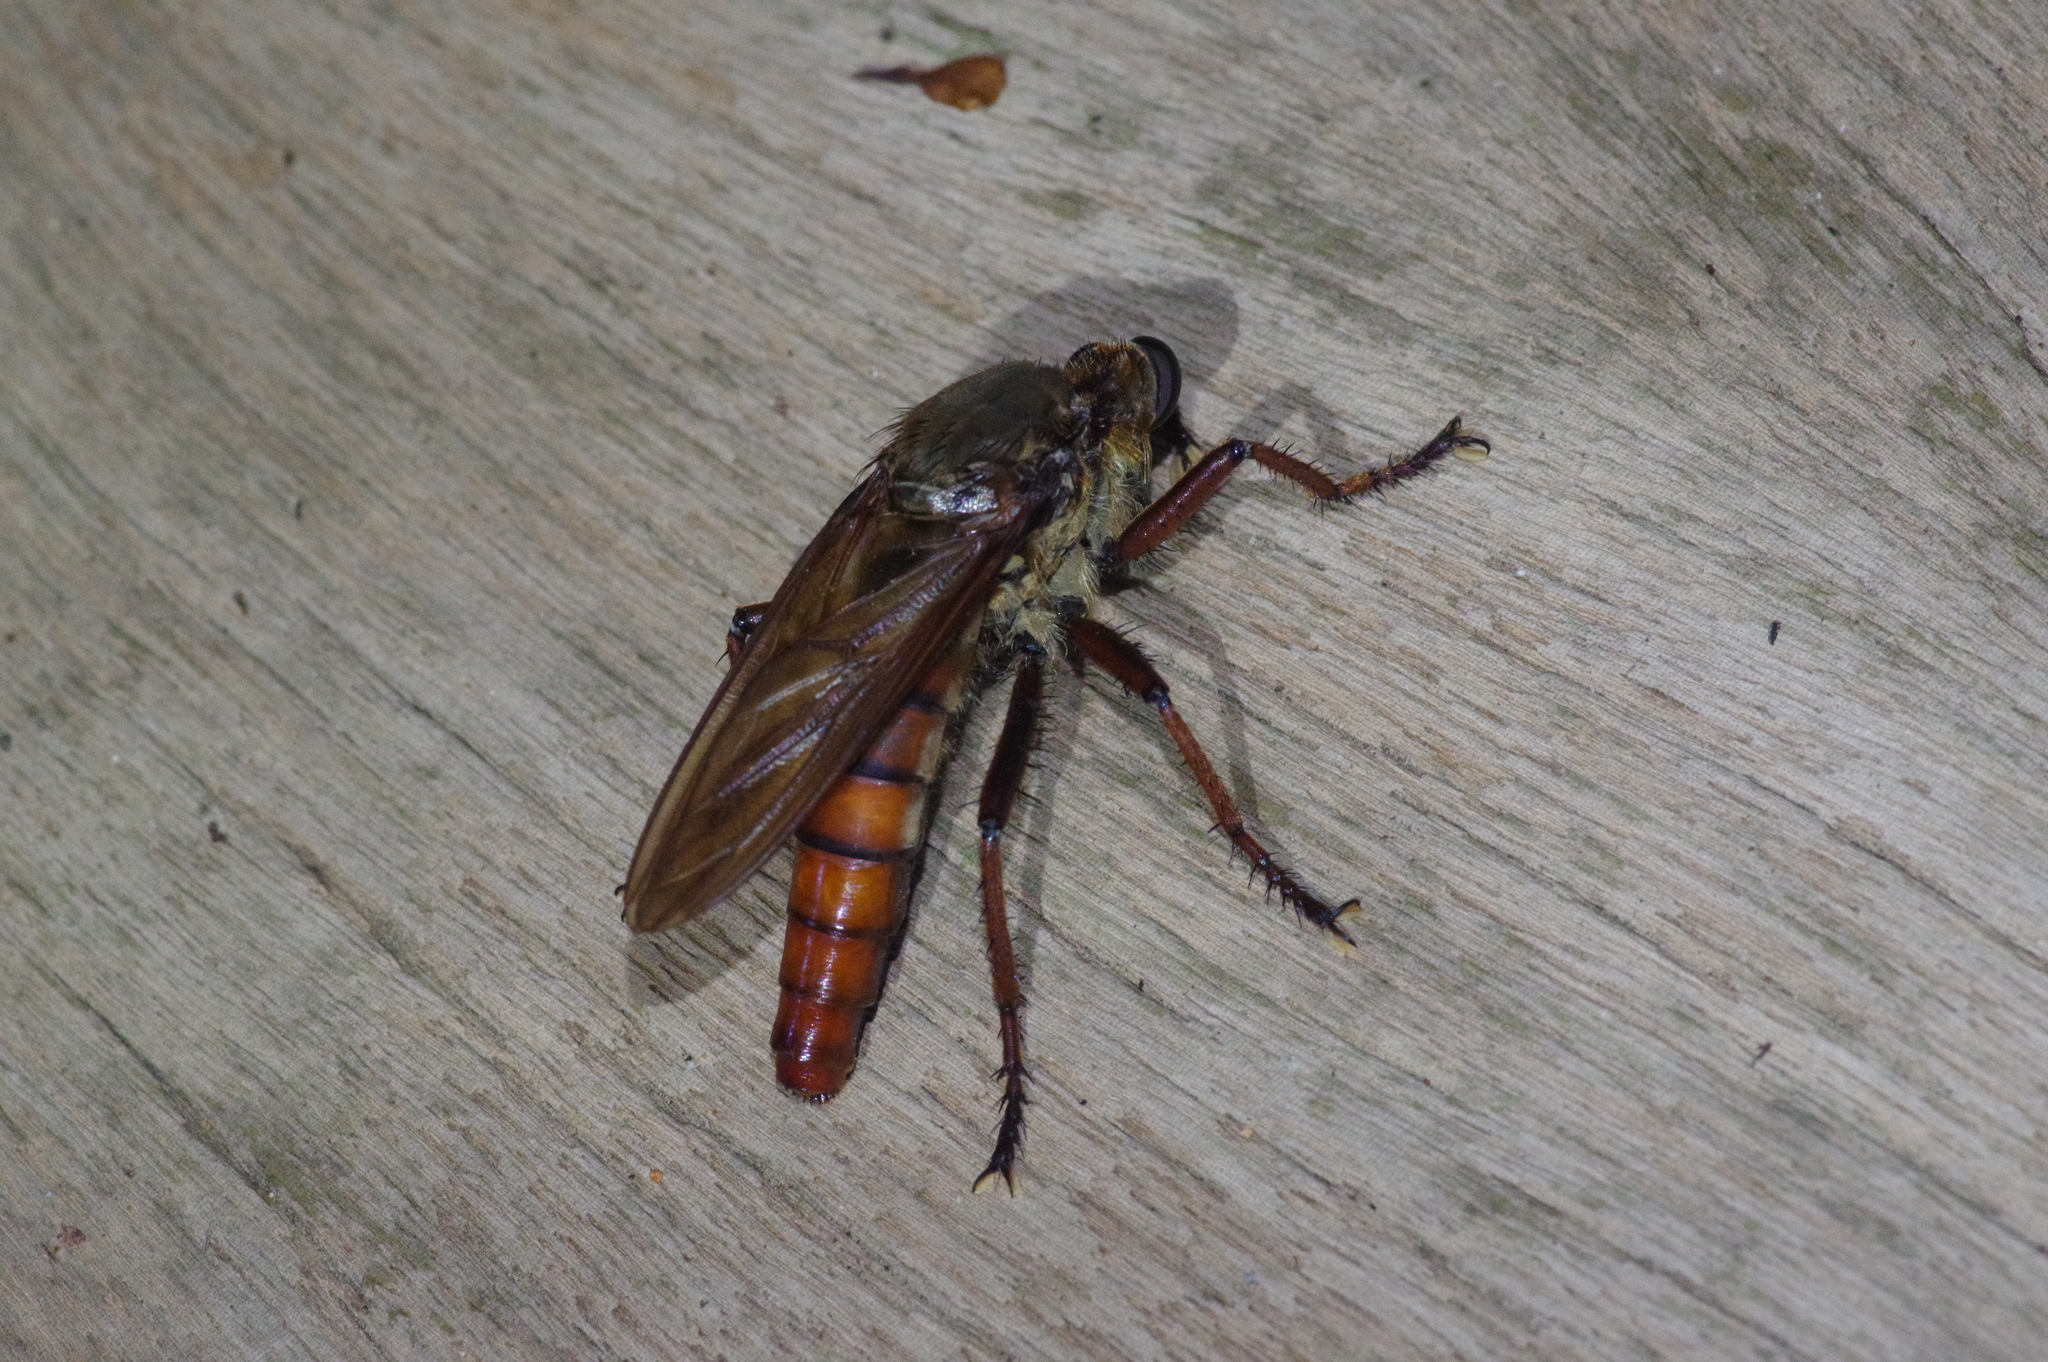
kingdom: Animalia
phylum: Arthropoda
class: Insecta
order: Diptera
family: Asilidae
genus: Microstylum
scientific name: Microstylum
